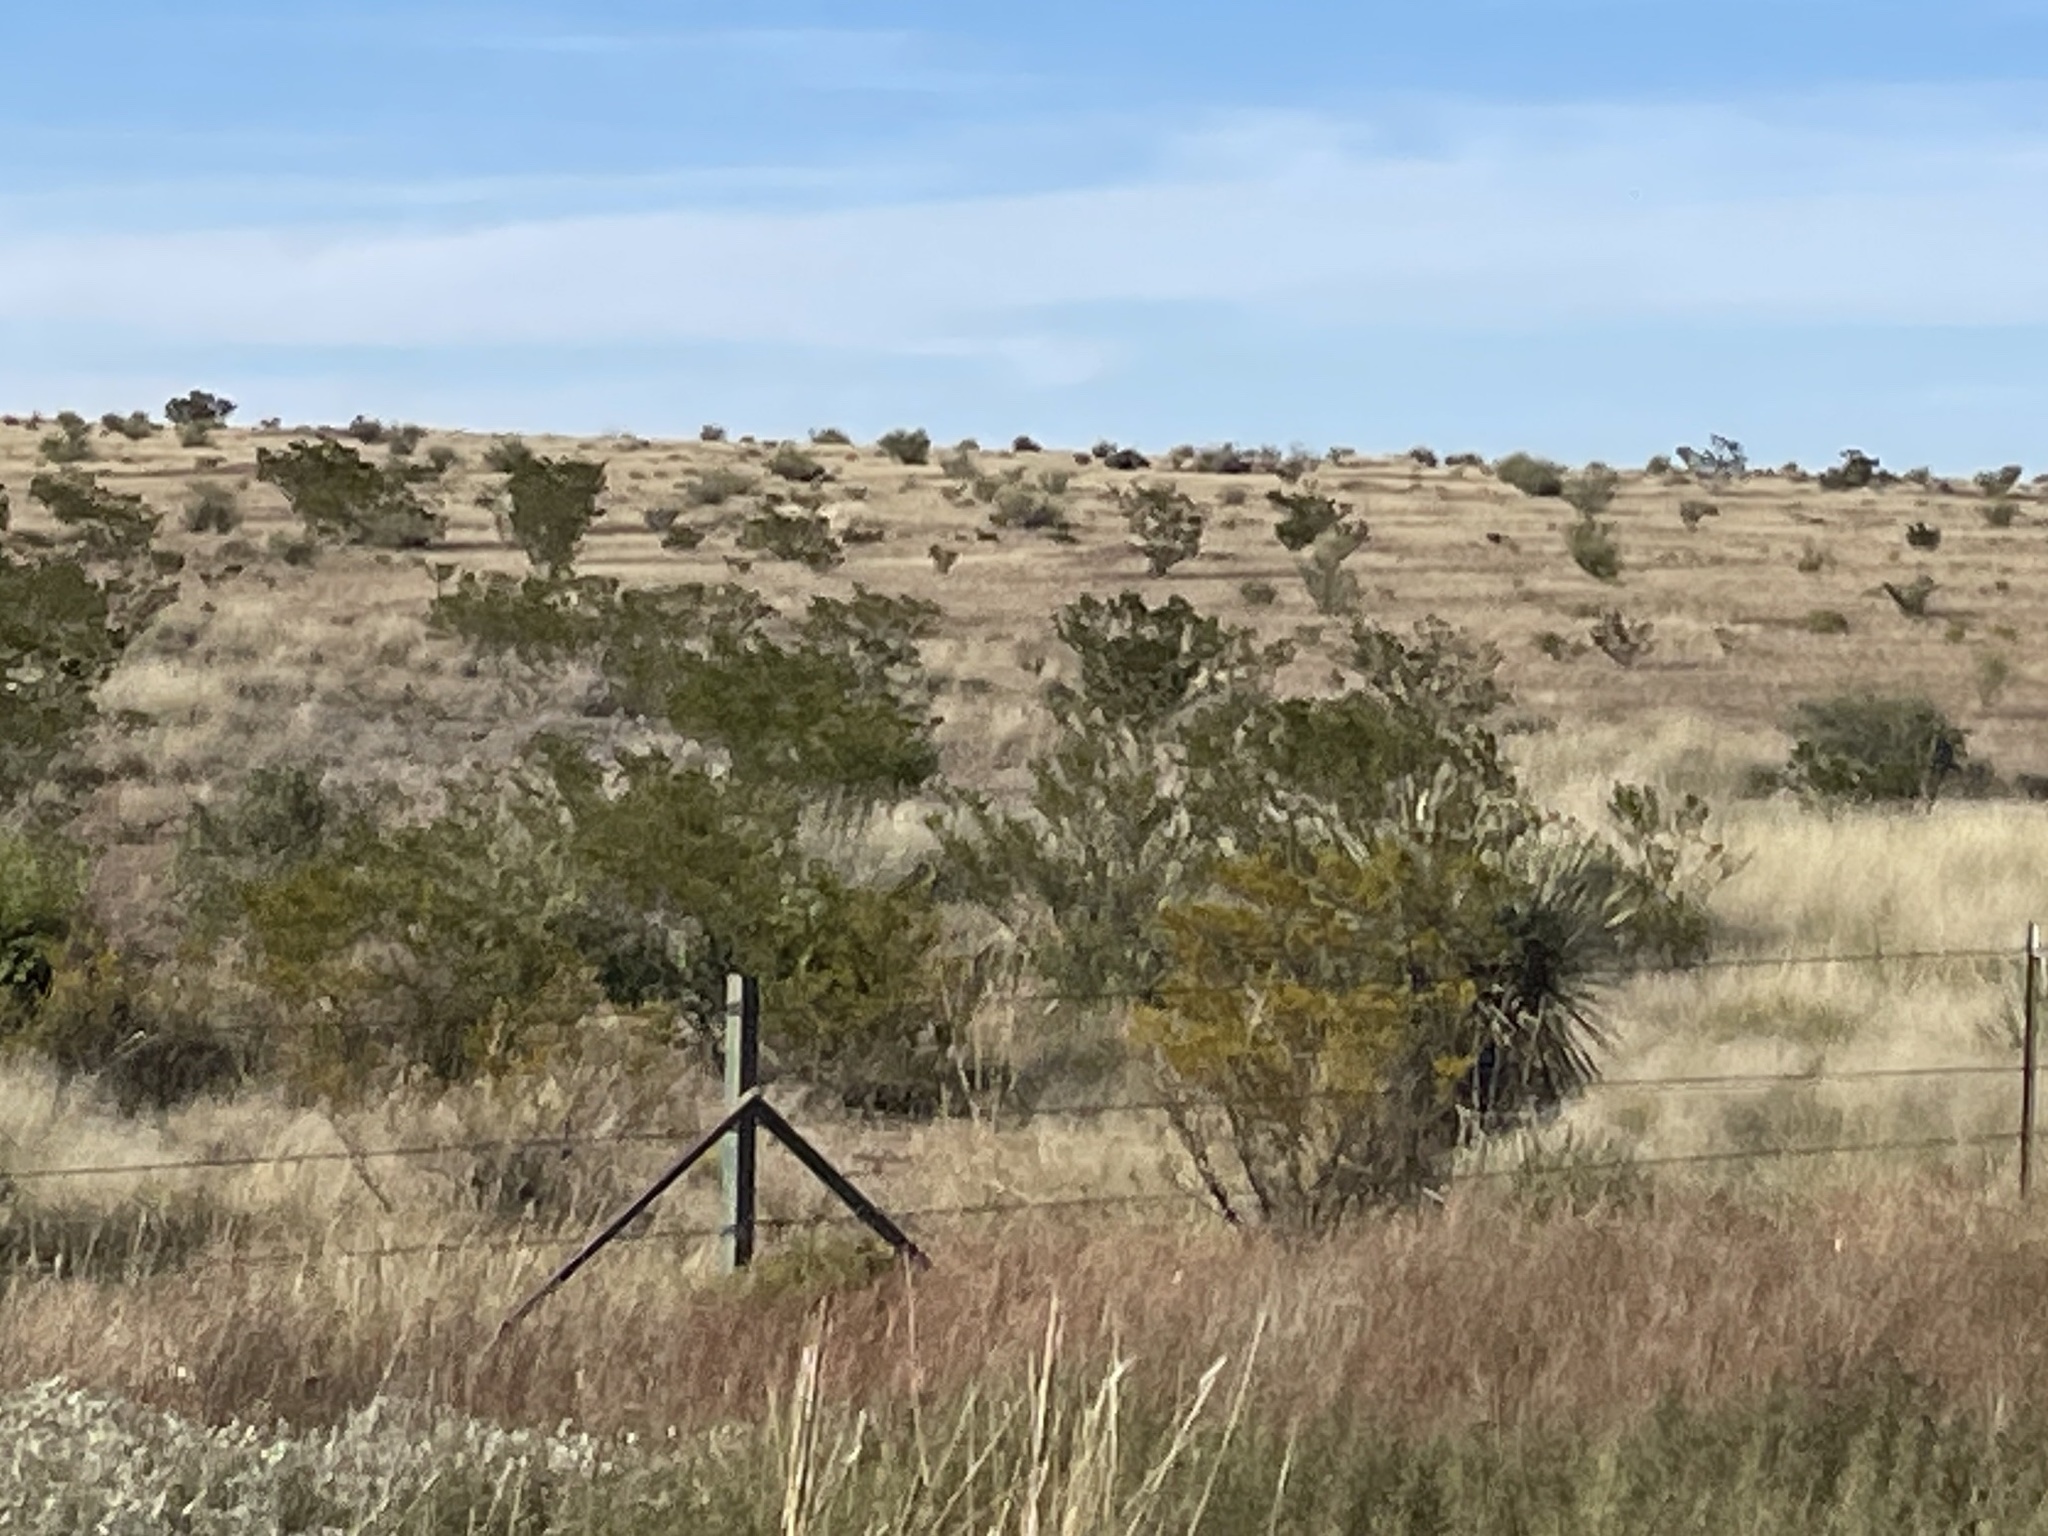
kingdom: Plantae
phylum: Tracheophyta
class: Magnoliopsida
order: Zygophyllales
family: Zygophyllaceae
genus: Larrea
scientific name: Larrea tridentata
